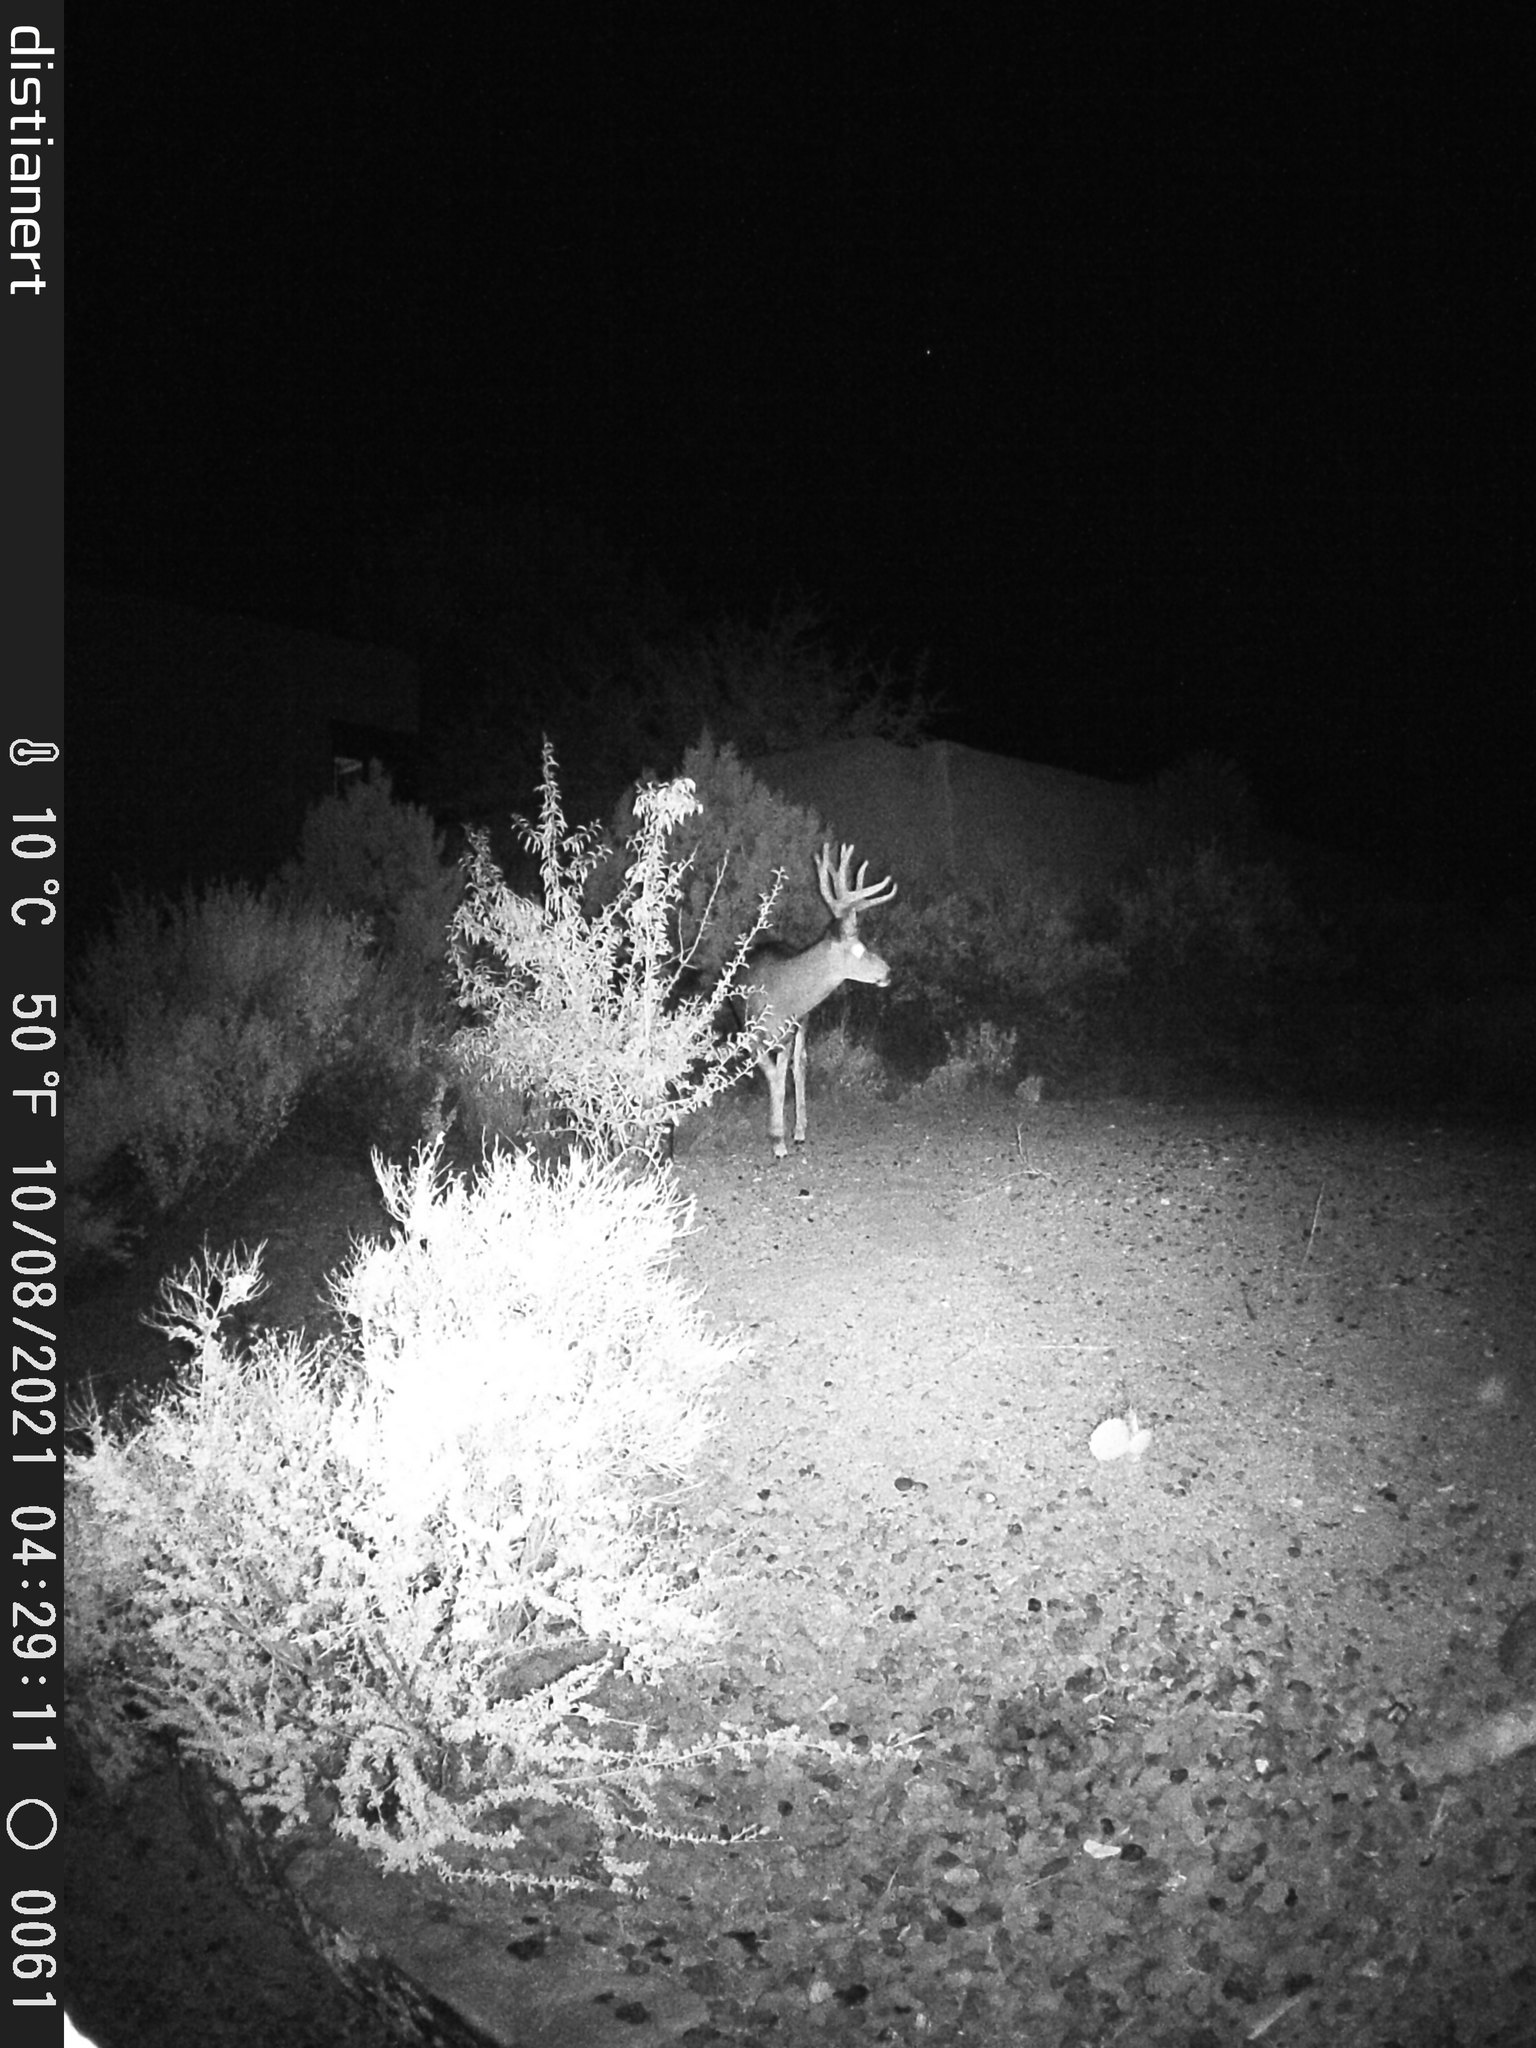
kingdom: Animalia
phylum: Chordata
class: Mammalia
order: Artiodactyla
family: Cervidae
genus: Odocoileus
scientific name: Odocoileus hemionus
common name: Mule deer
